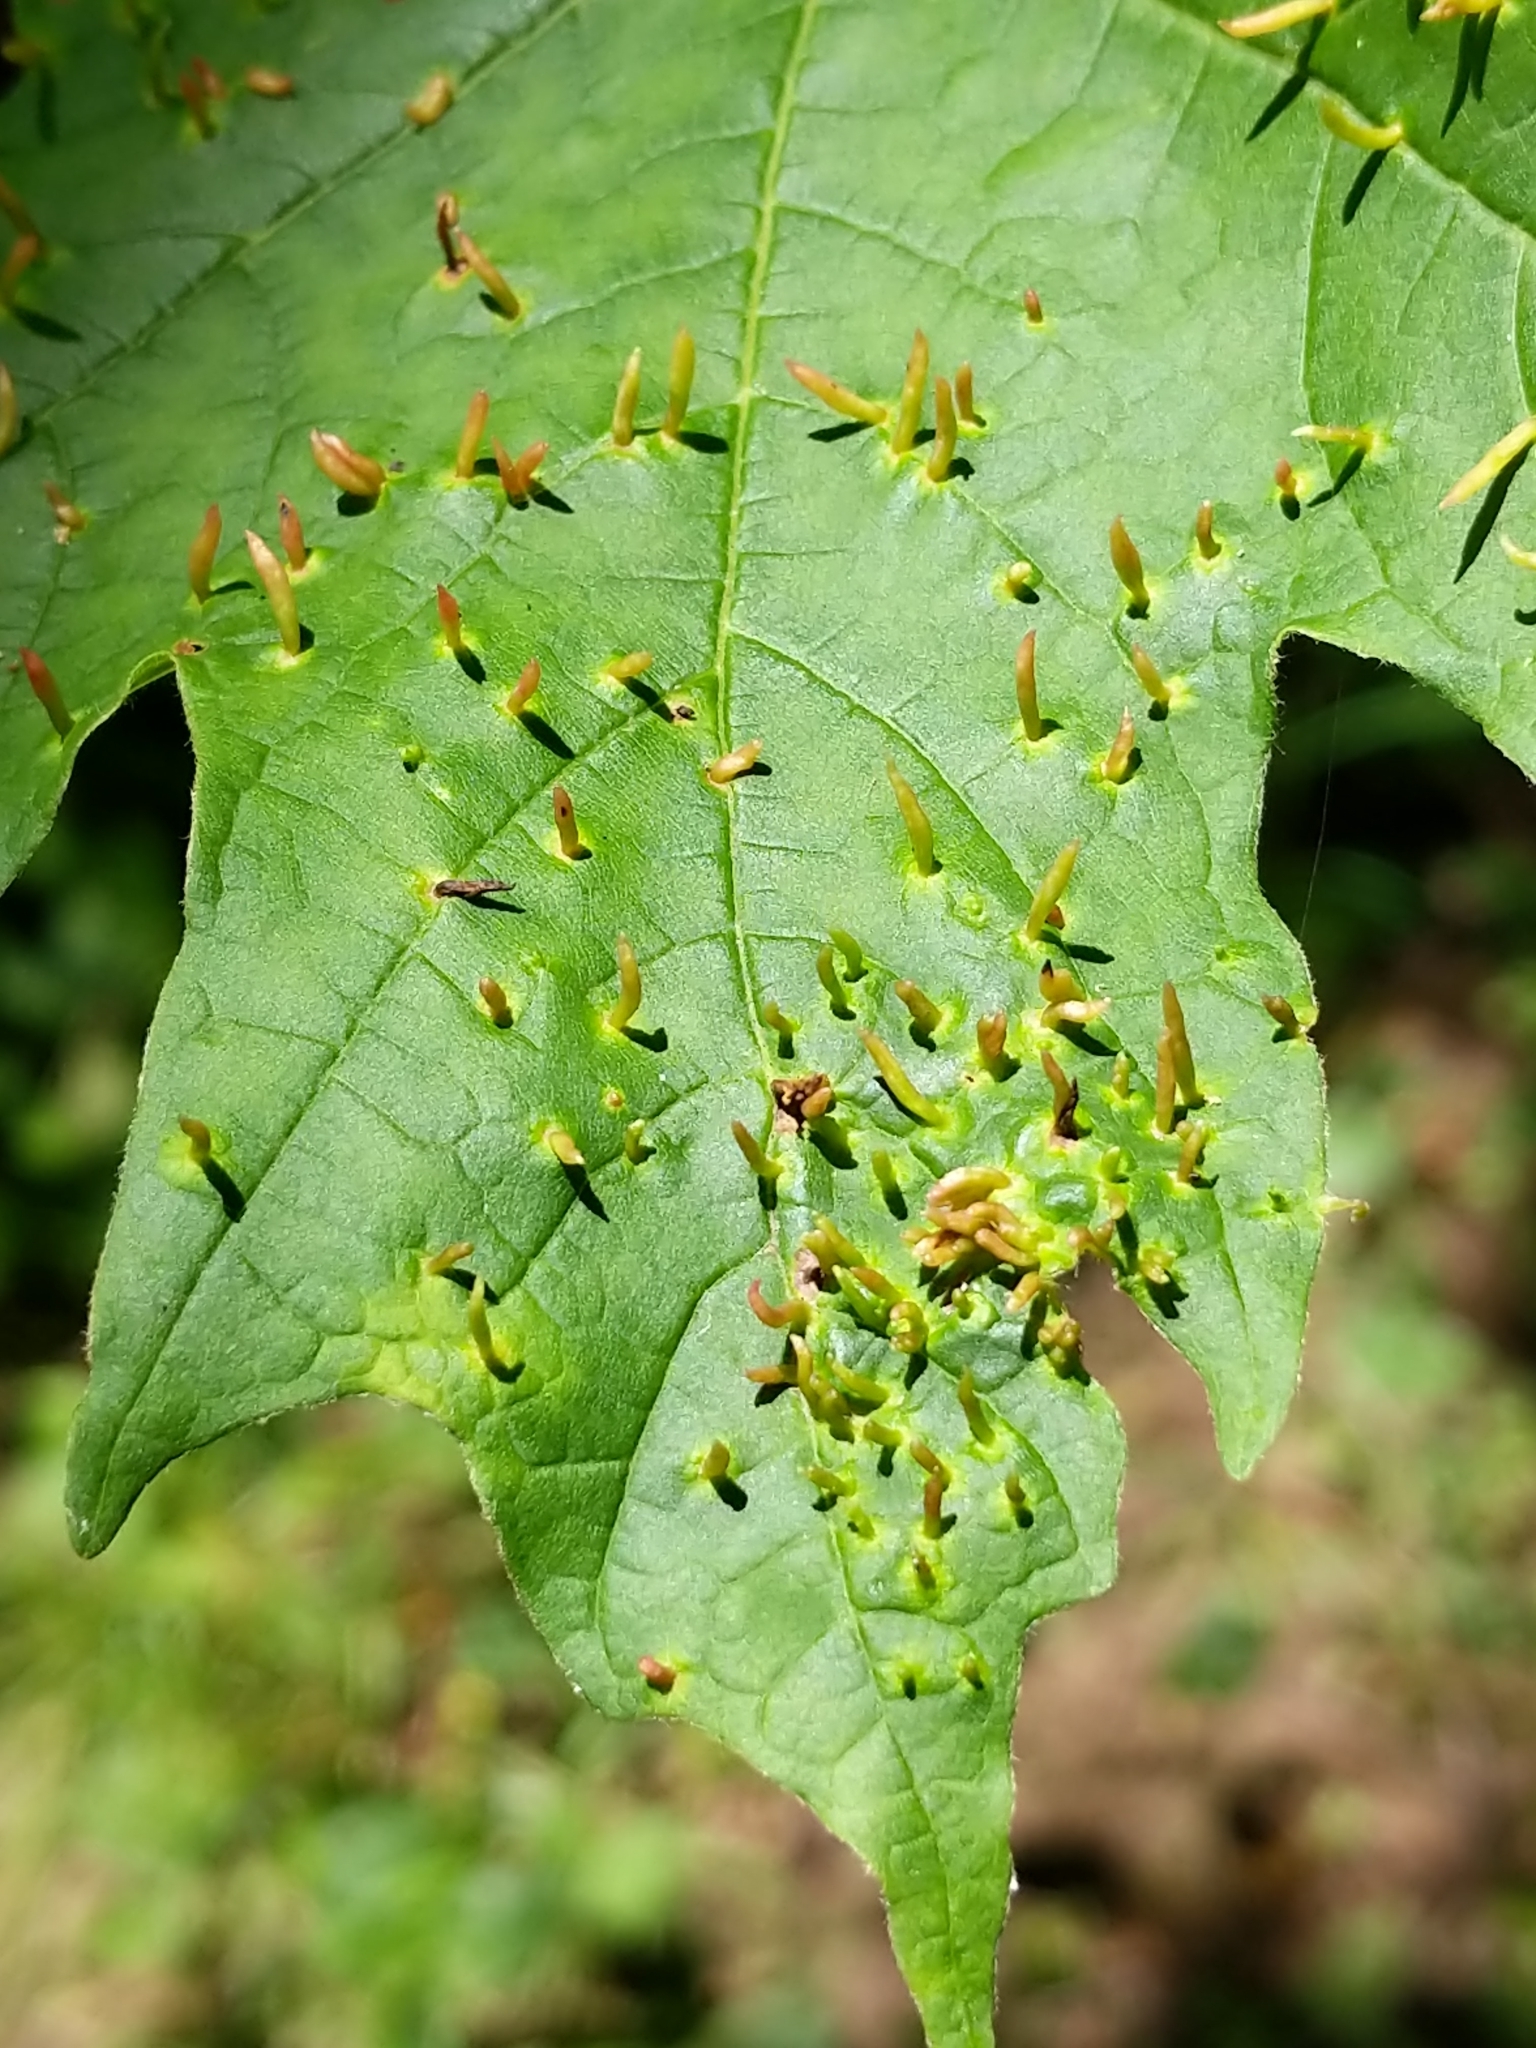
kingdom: Animalia
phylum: Arthropoda
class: Arachnida
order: Trombidiformes
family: Eriophyidae
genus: Vasates
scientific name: Vasates aceriscrumena
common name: Maple spindle gall mite
